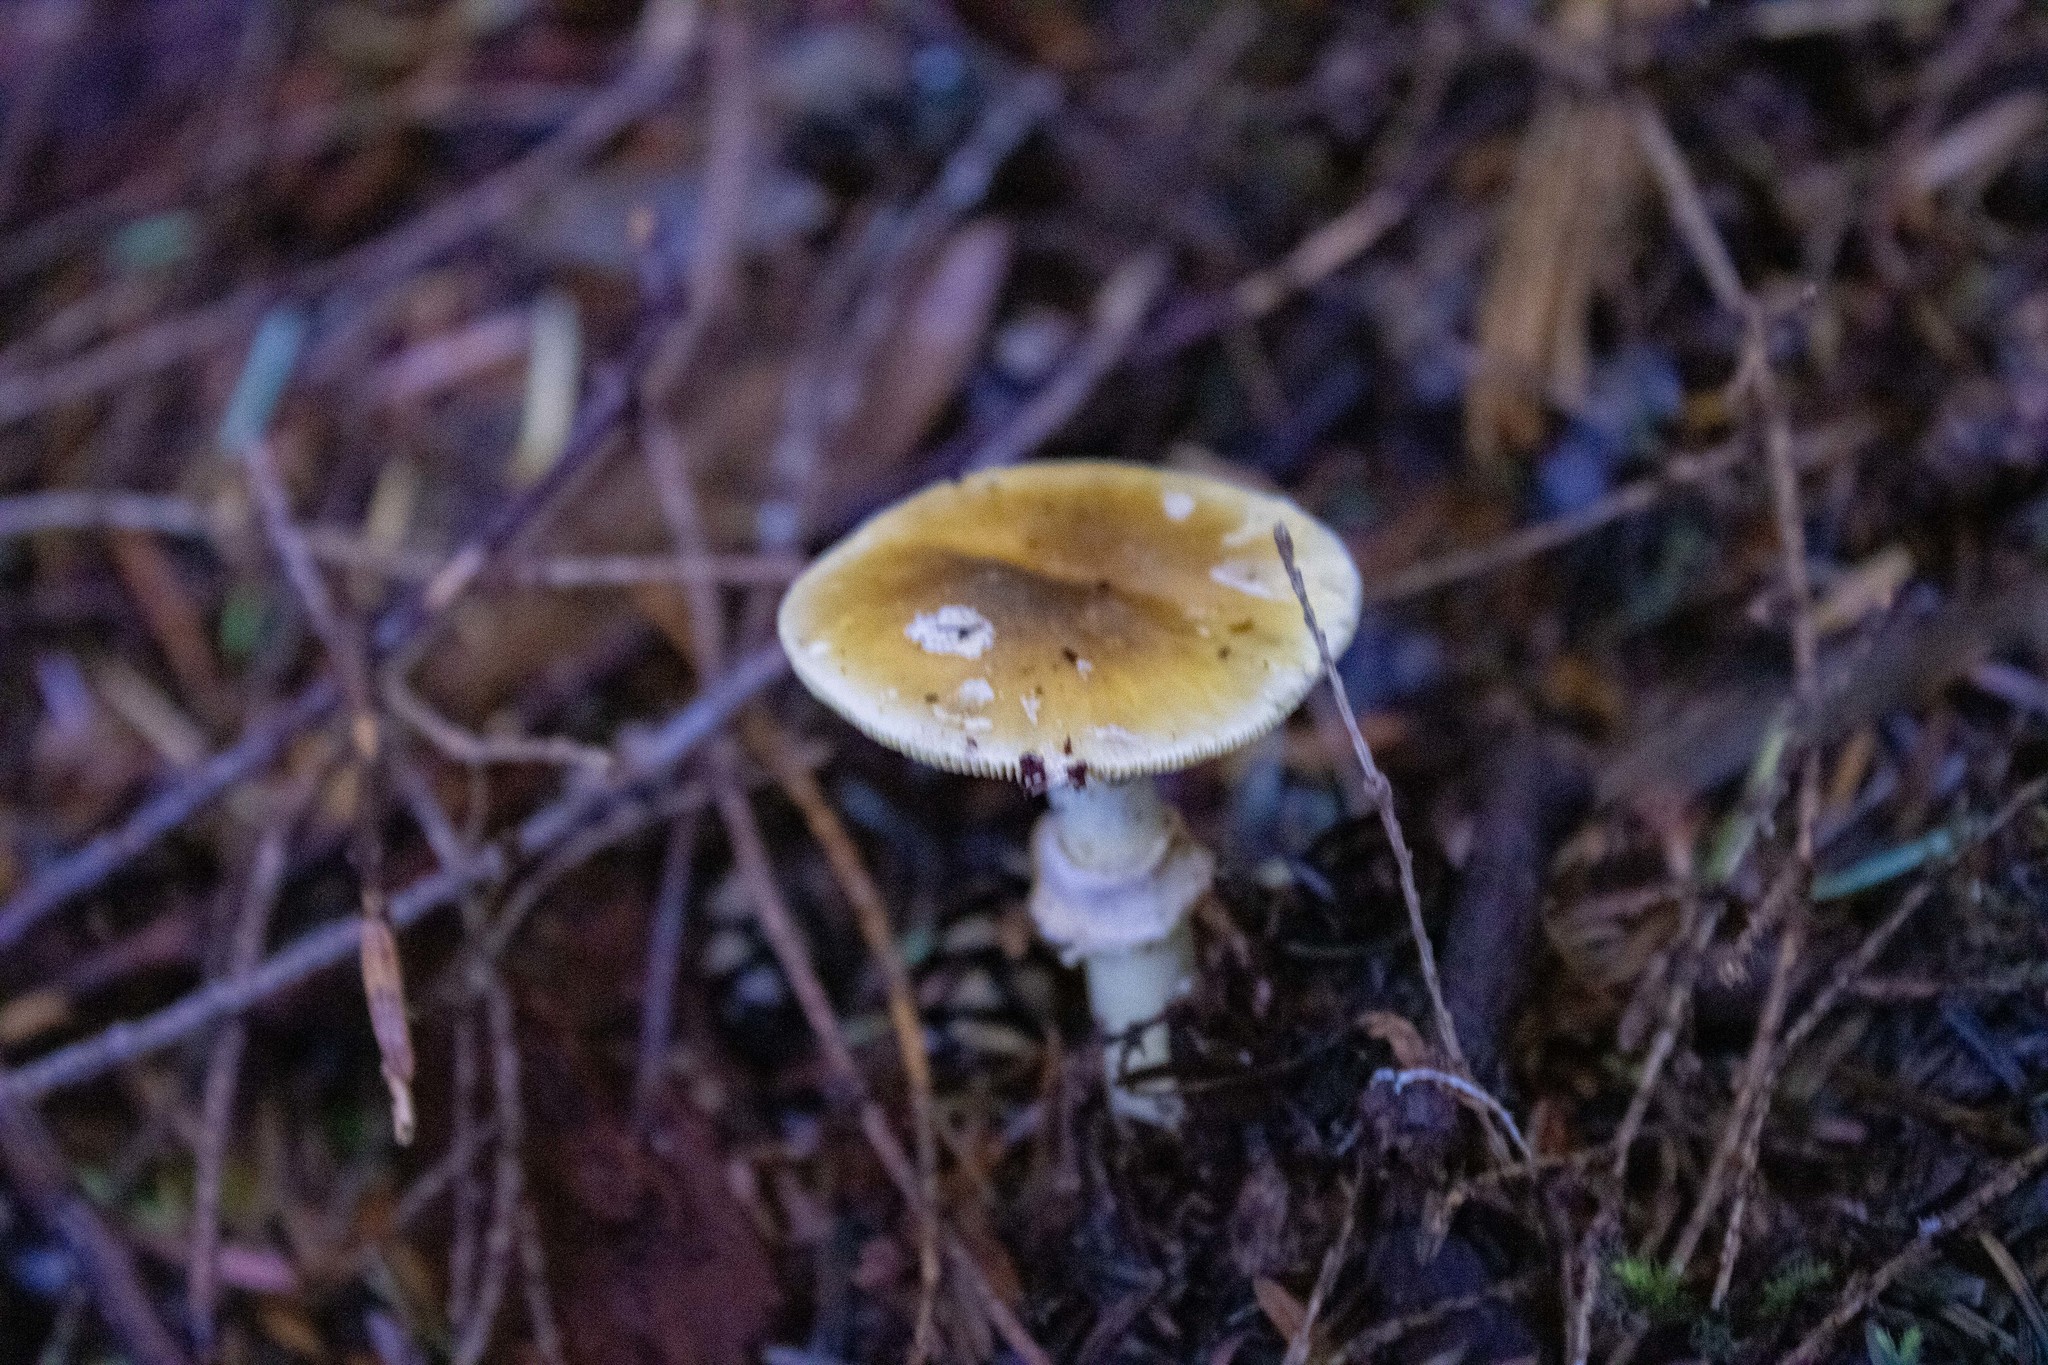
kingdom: Fungi
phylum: Basidiomycota
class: Agaricomycetes
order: Agaricales
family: Amanitaceae
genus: Amanita
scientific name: Amanita augusta
